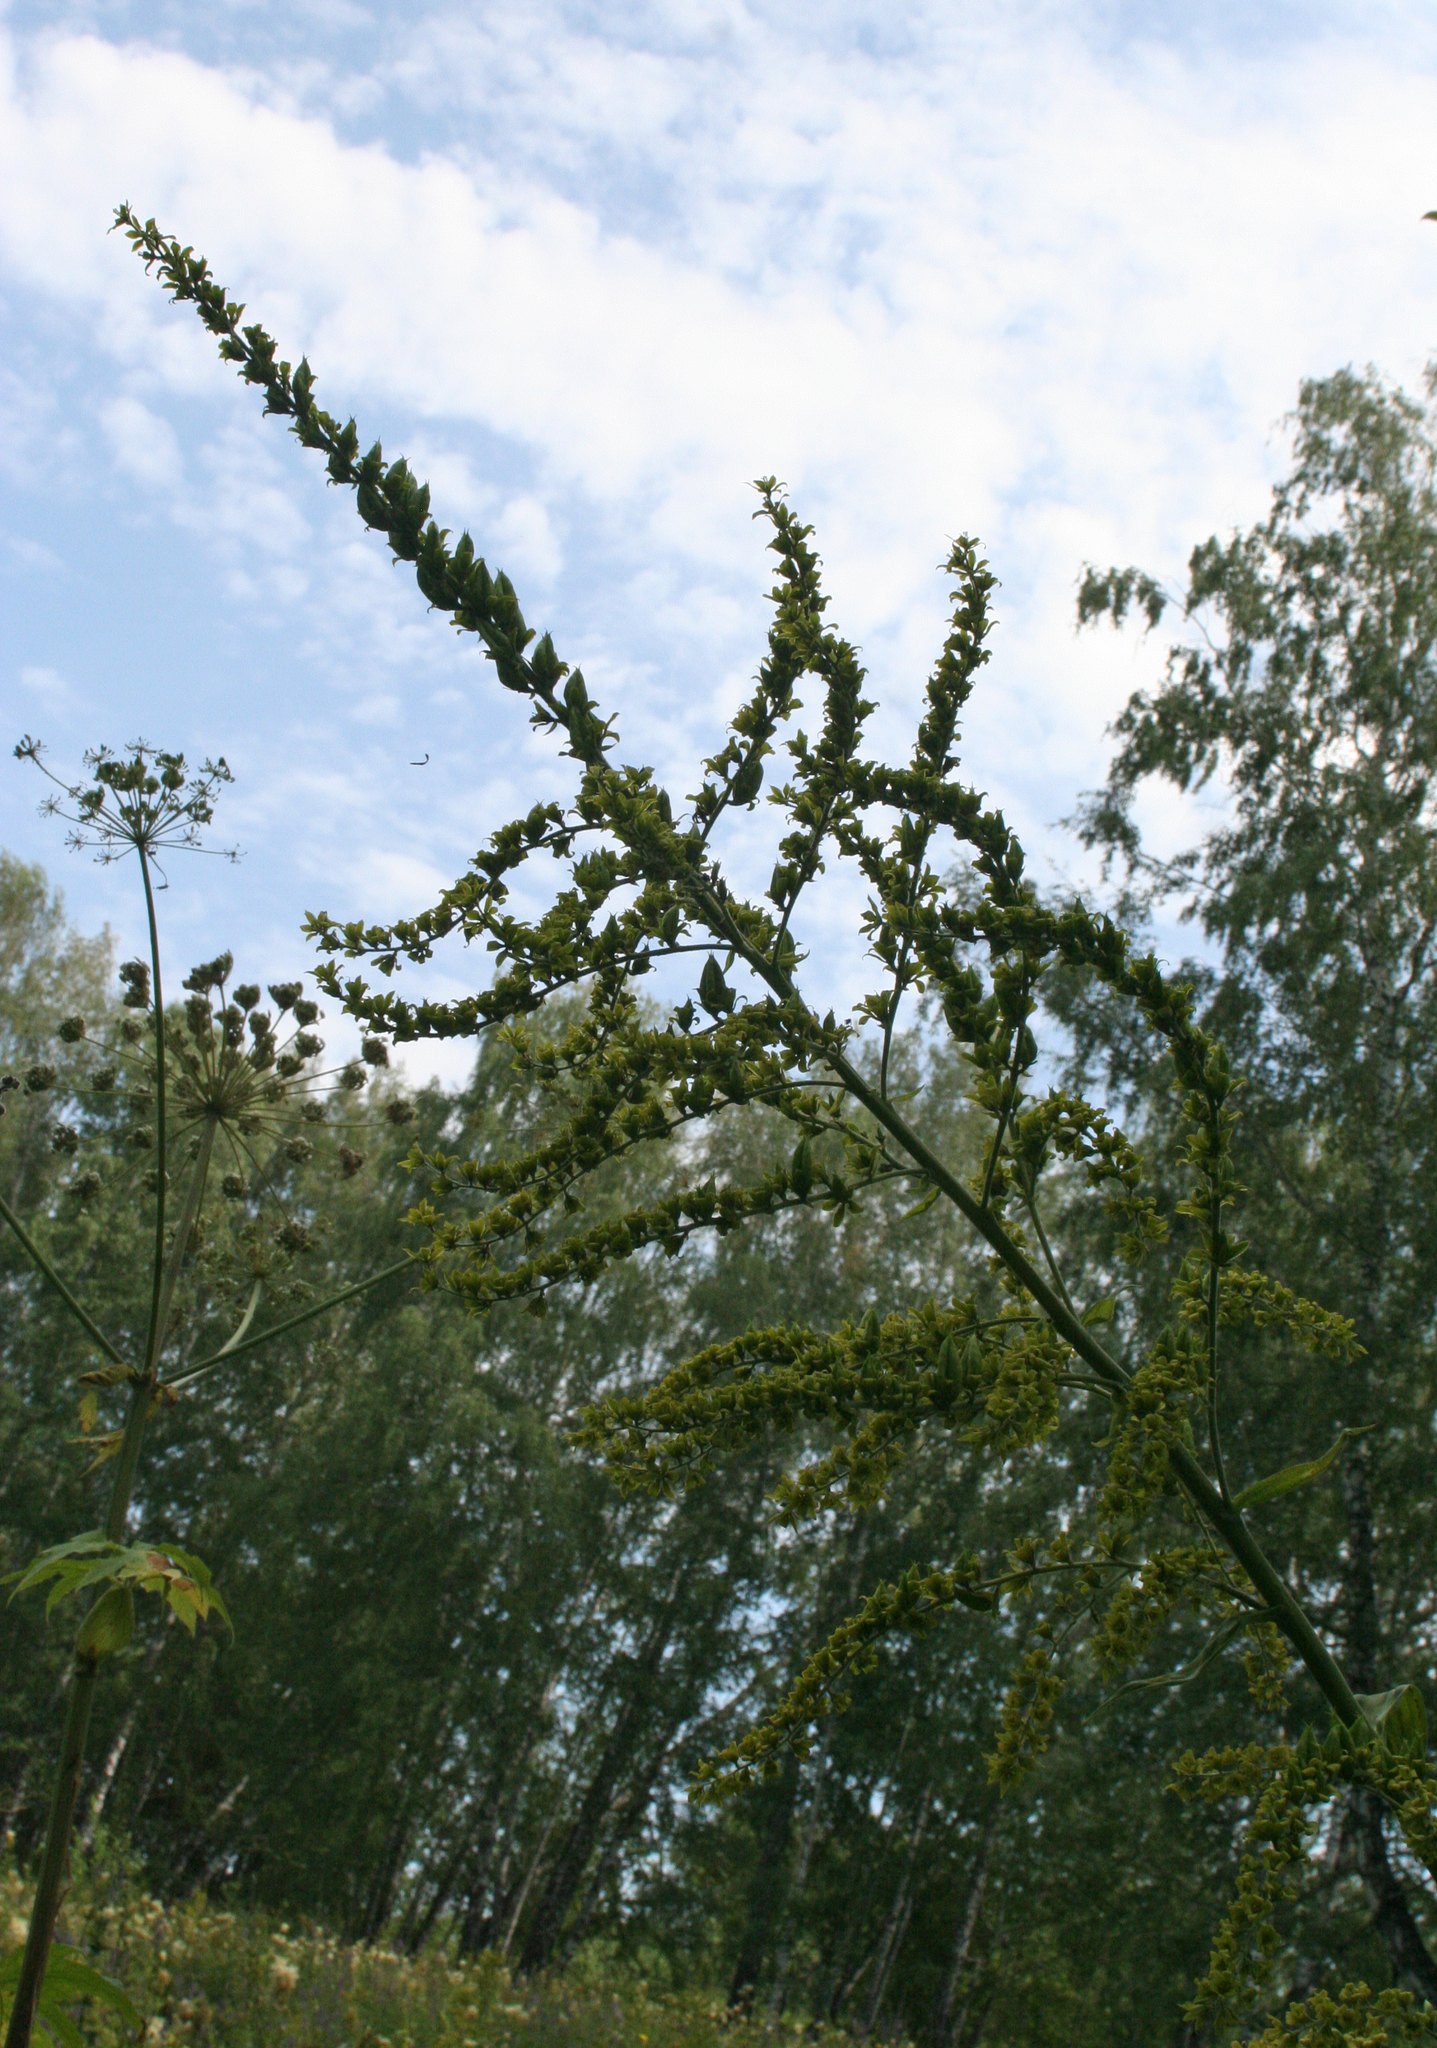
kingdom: Plantae
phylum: Tracheophyta
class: Liliopsida
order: Liliales
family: Melanthiaceae
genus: Veratrum
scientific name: Veratrum lobelianum
